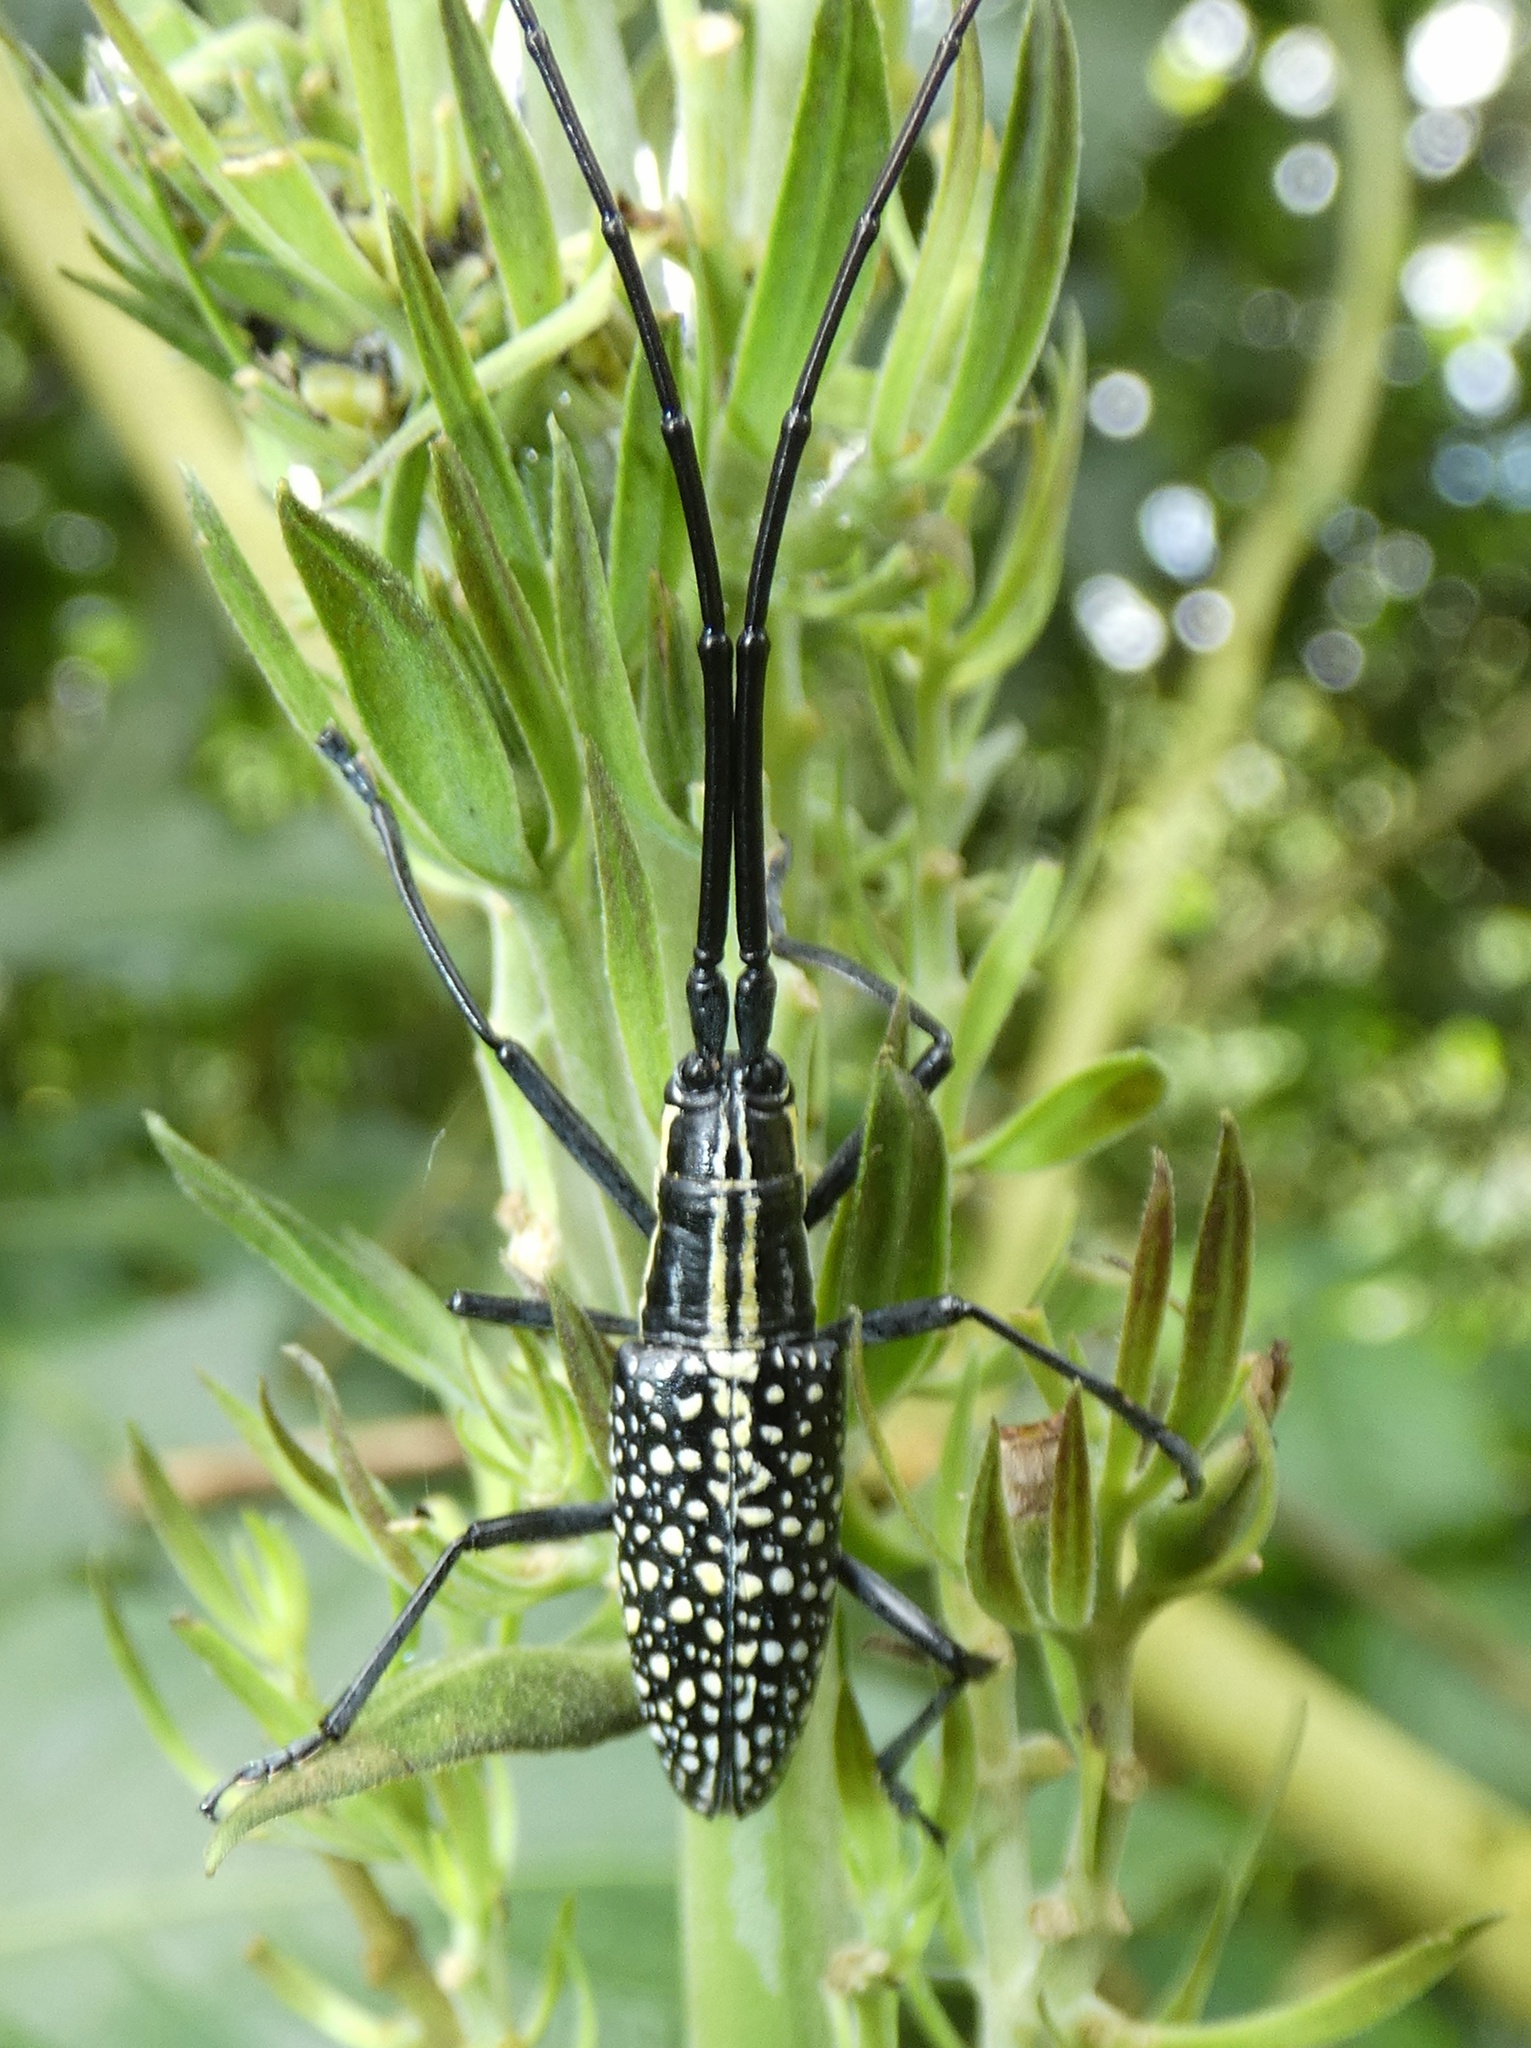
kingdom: Animalia
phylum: Arthropoda
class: Insecta
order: Coleoptera
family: Cerambycidae
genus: Ptychodes
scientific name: Ptychodes taeniotoides
